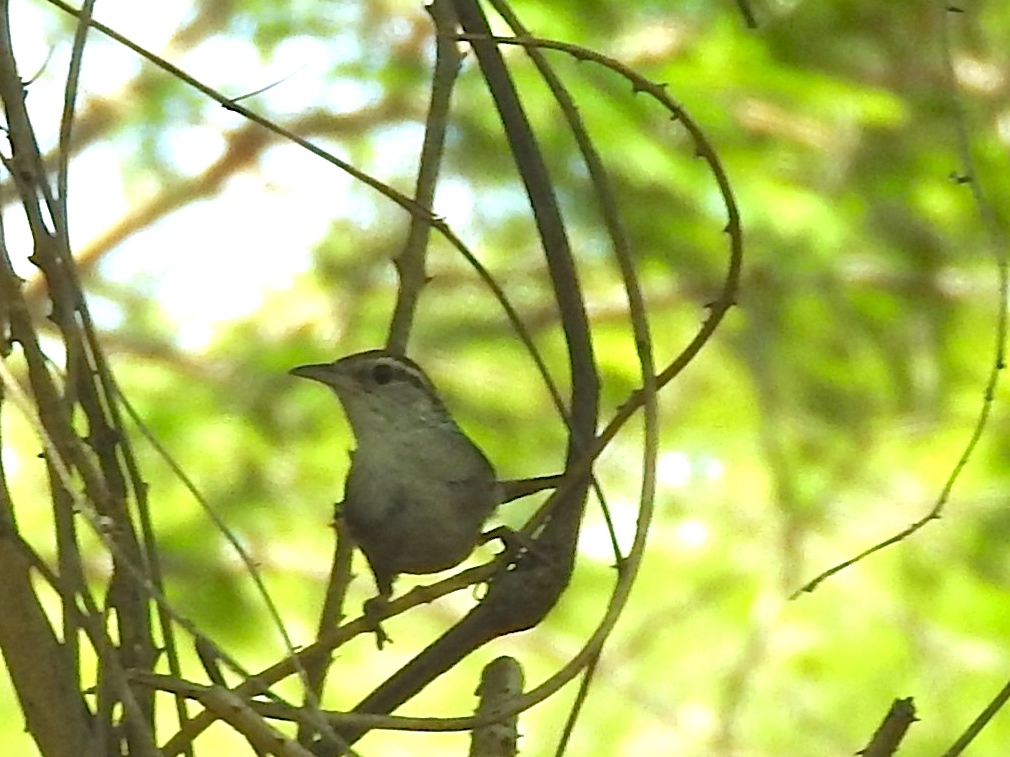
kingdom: Animalia
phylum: Chordata
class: Aves
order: Passeriformes
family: Troglodytidae
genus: Thryophilus
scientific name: Thryophilus sinaloa
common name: Sinaloa wren
